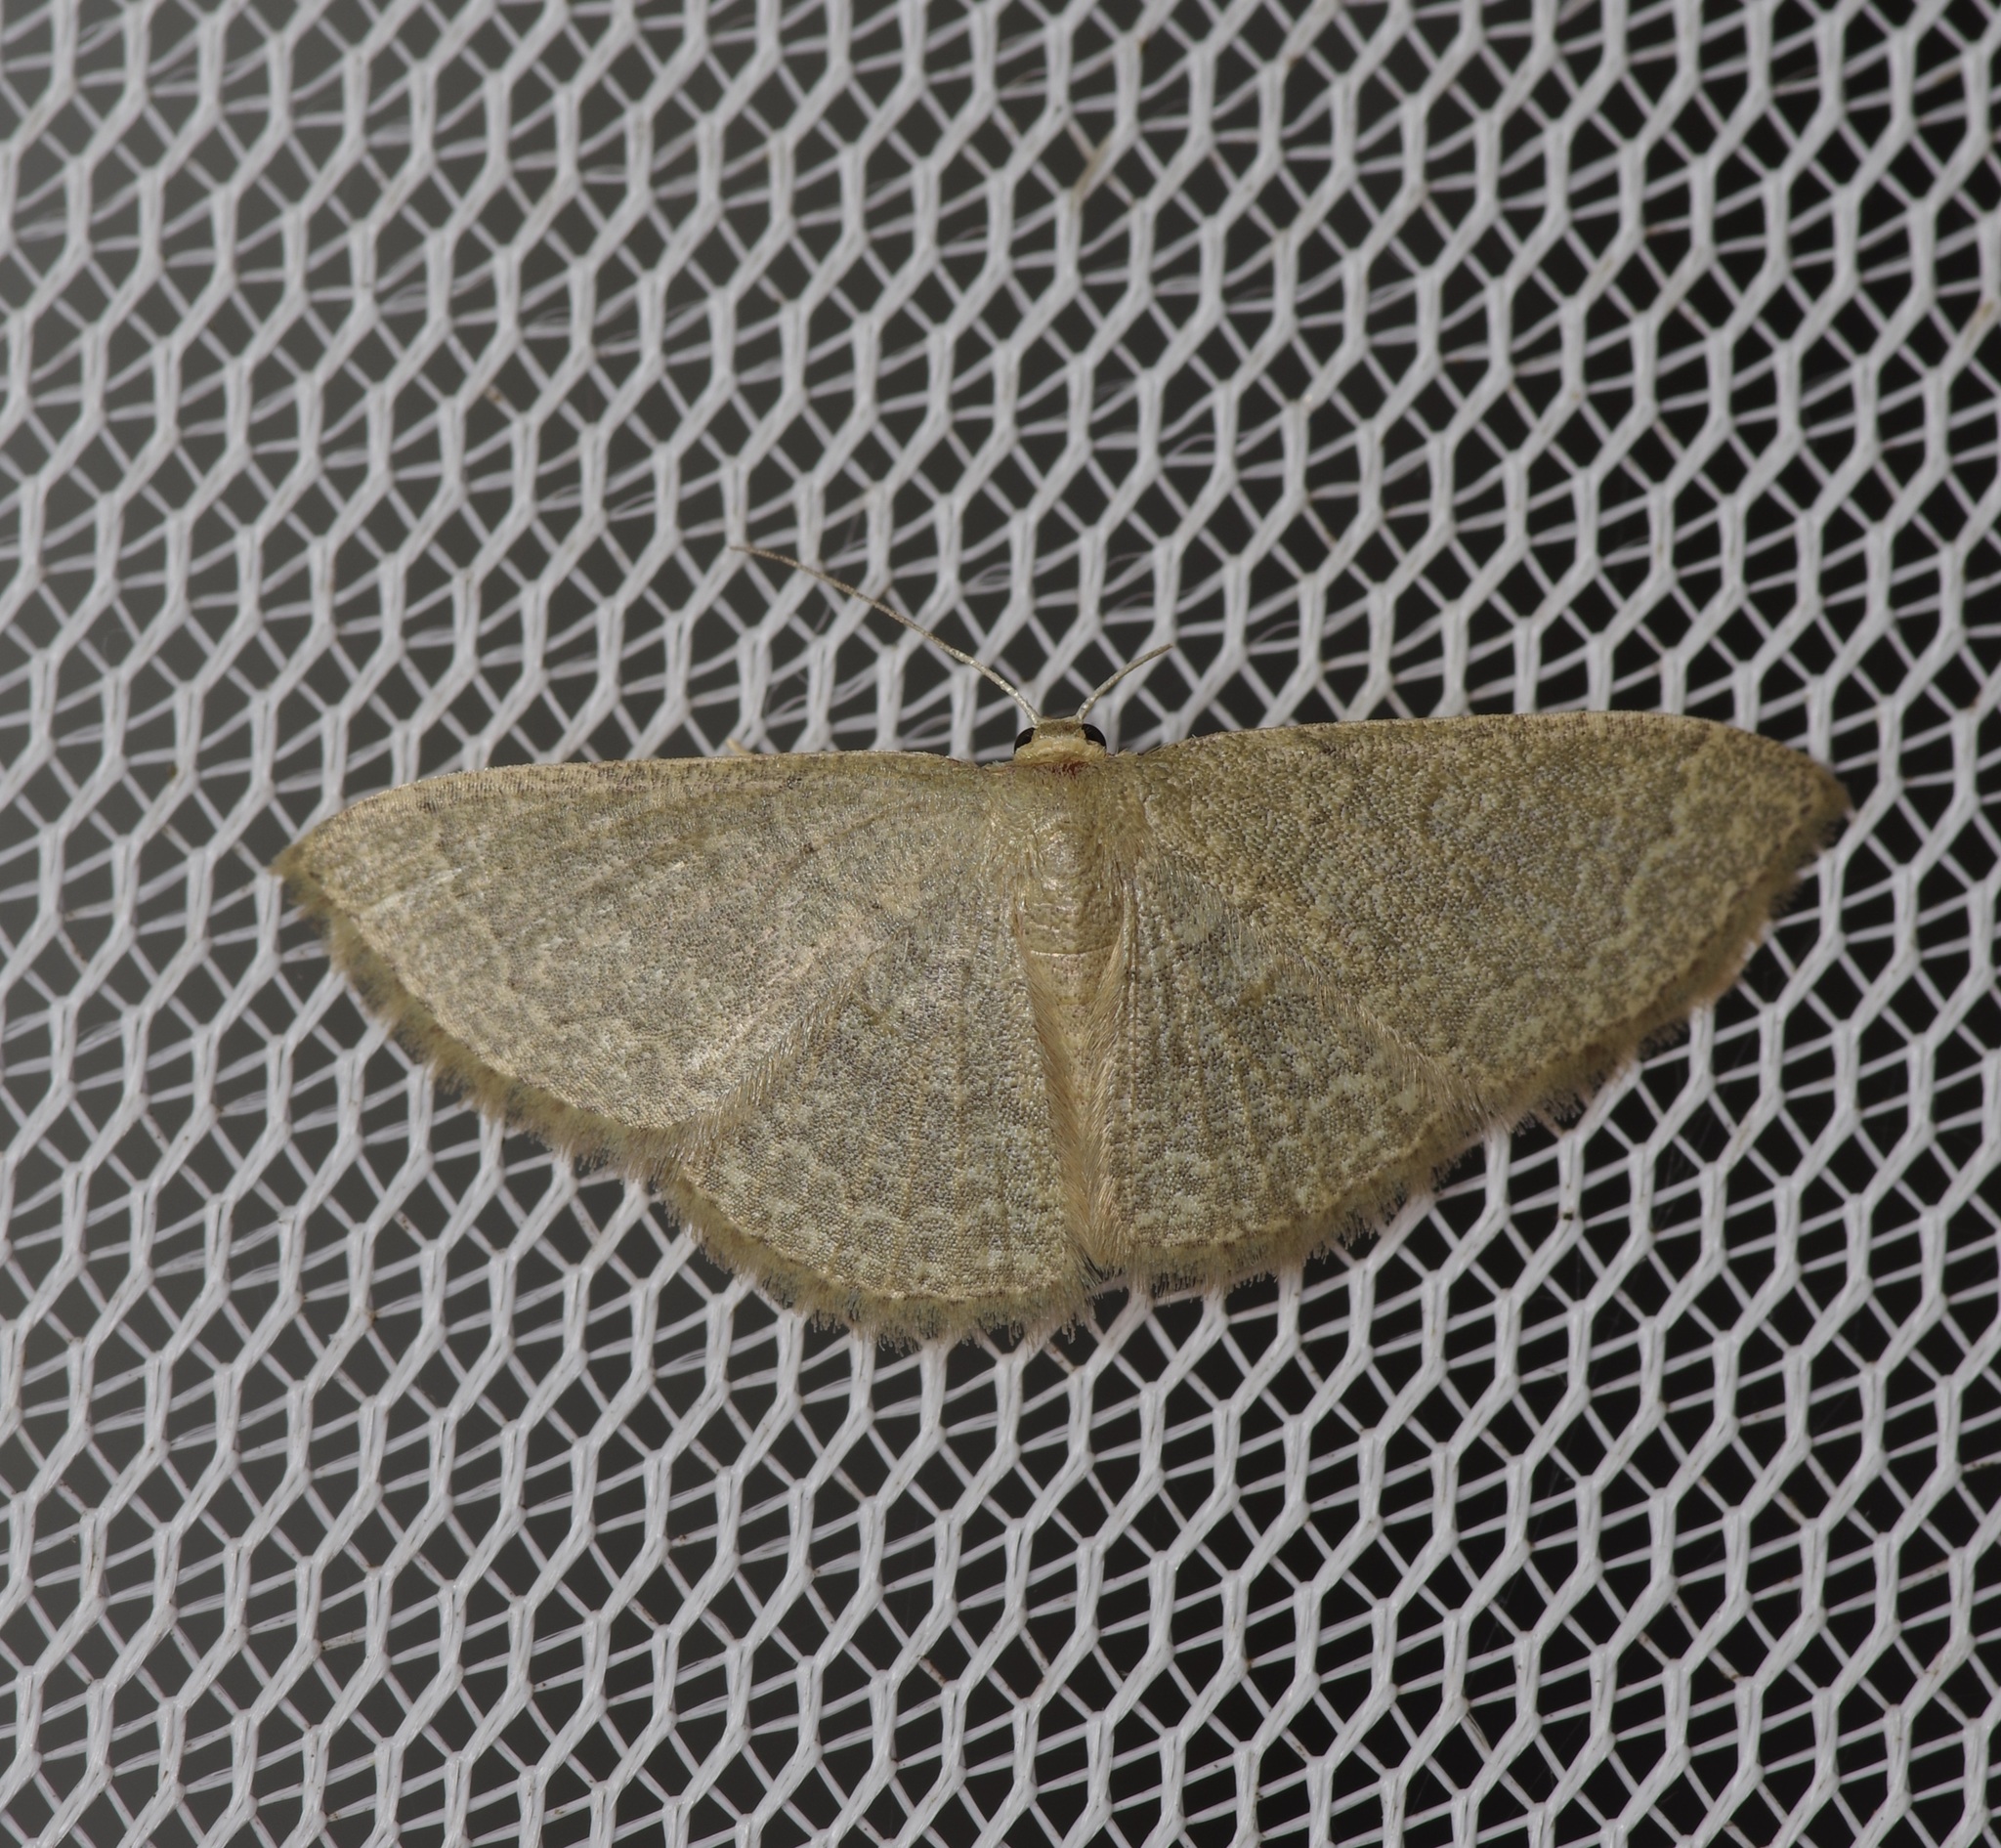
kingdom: Animalia
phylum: Arthropoda
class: Insecta
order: Lepidoptera
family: Geometridae
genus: Pleuroprucha
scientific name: Pleuroprucha insulsaria
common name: Common tan wave
